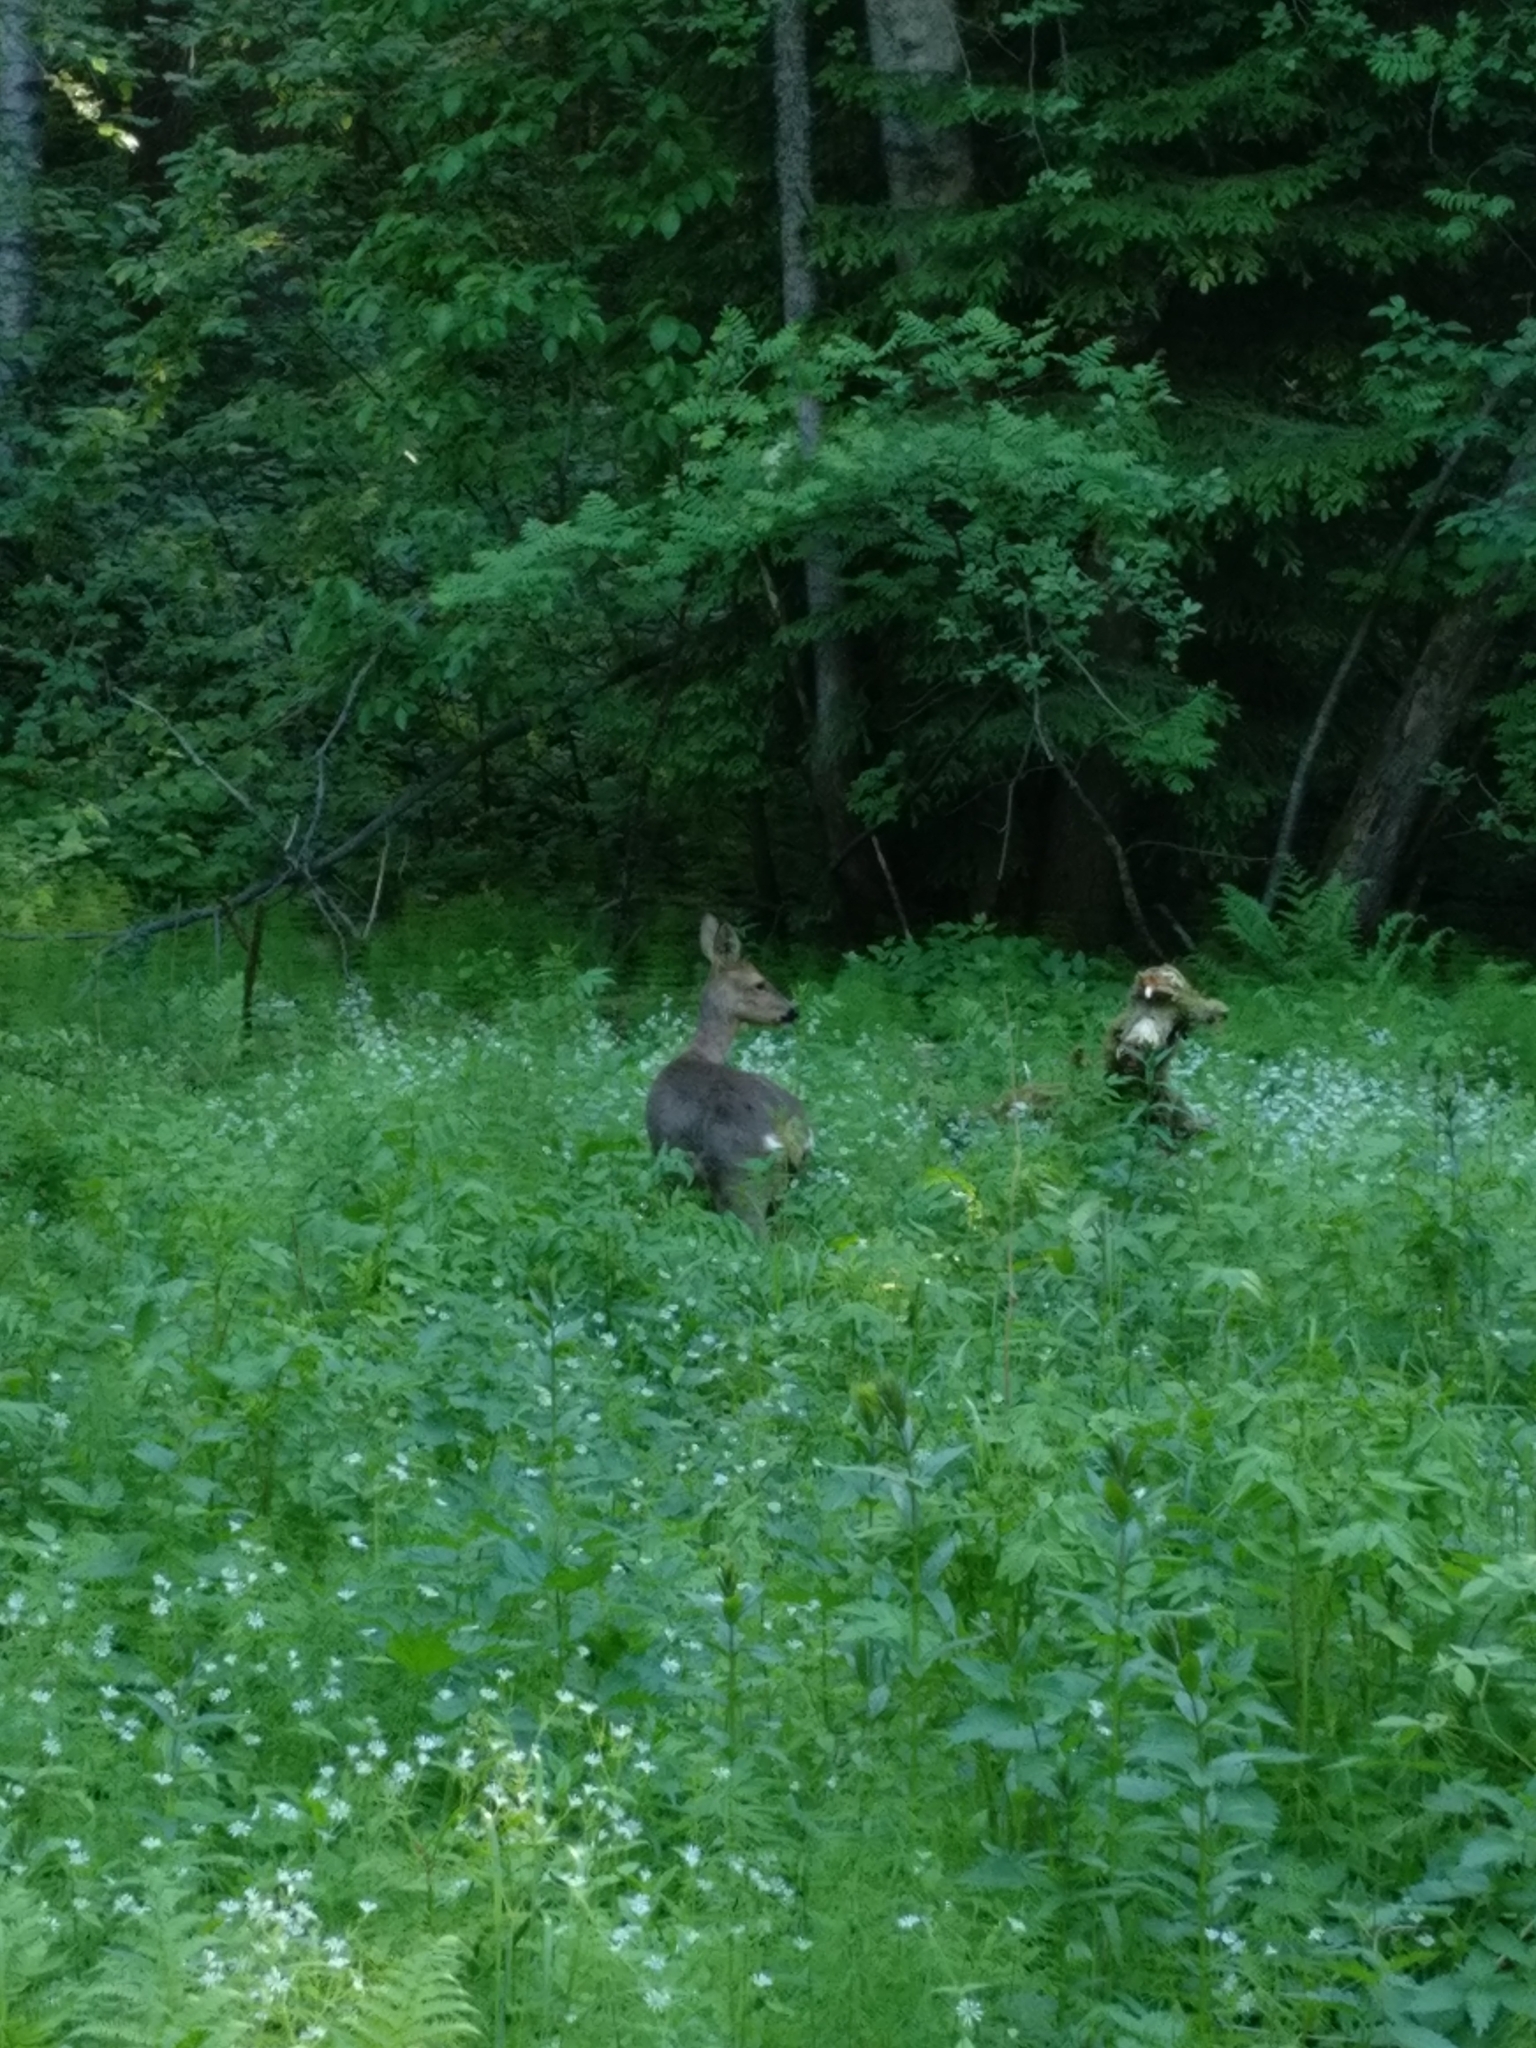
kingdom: Animalia
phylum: Chordata
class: Mammalia
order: Artiodactyla
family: Cervidae
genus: Capreolus
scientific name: Capreolus capreolus
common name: Western roe deer
